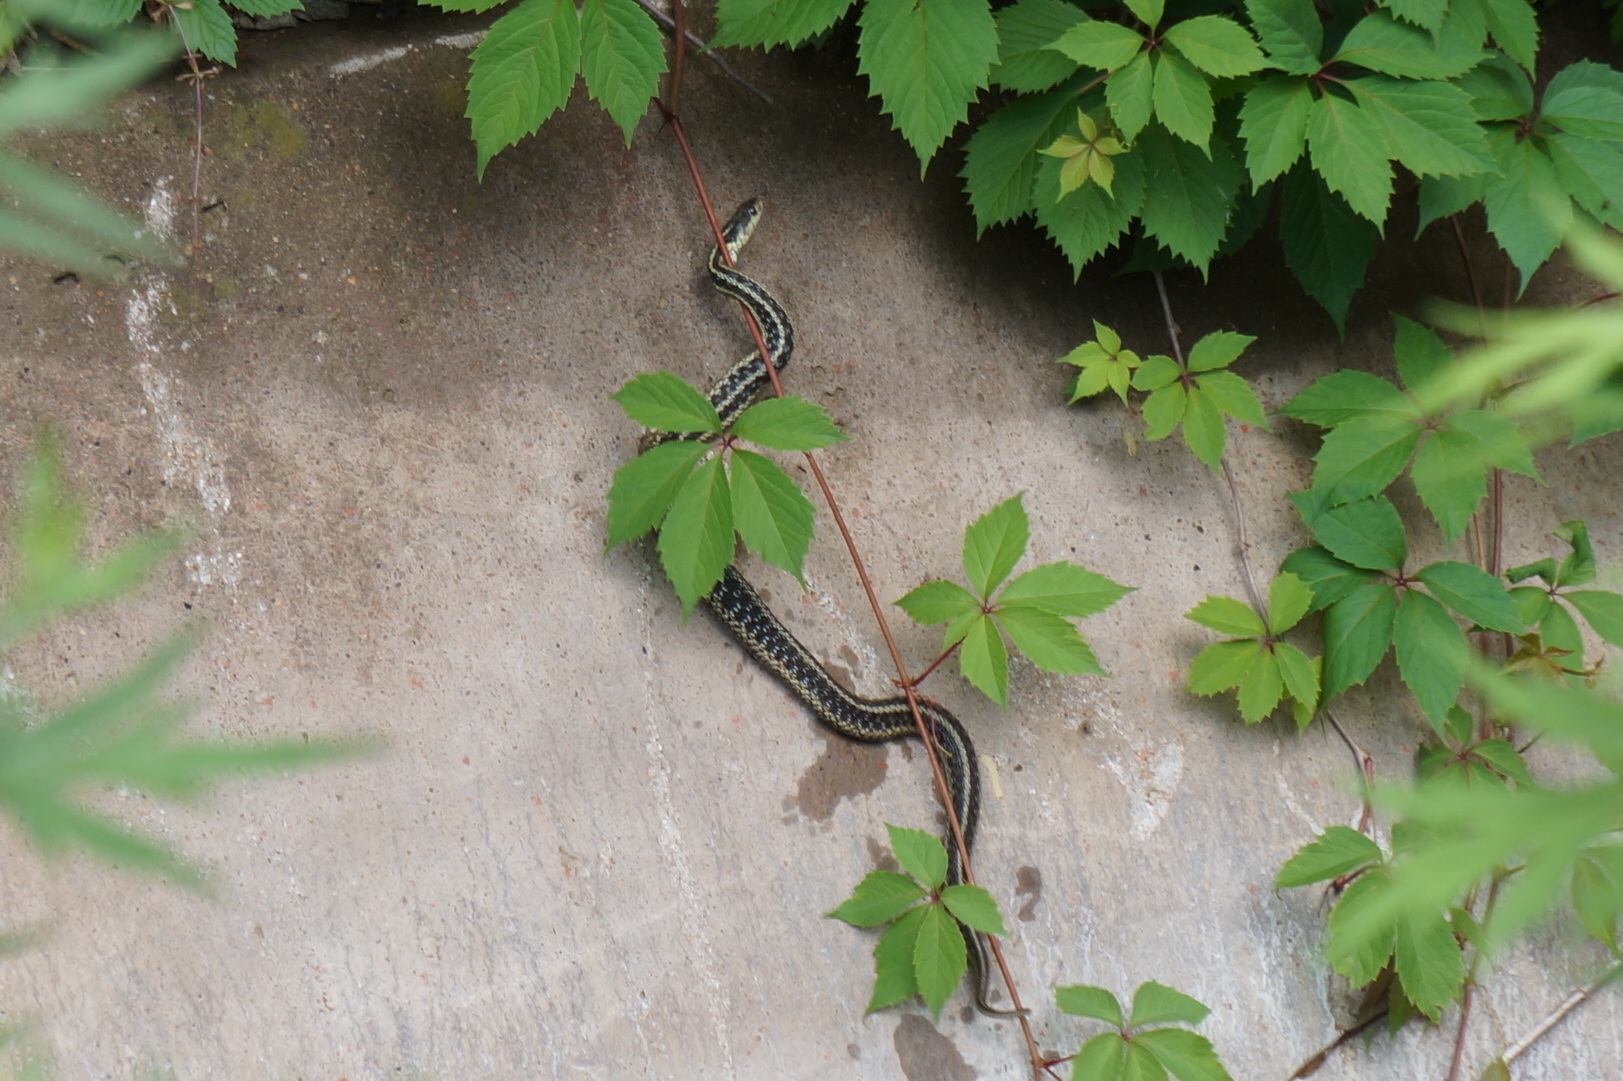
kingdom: Animalia
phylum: Chordata
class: Squamata
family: Colubridae
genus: Thamnophis
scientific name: Thamnophis sirtalis
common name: Common garter snake
